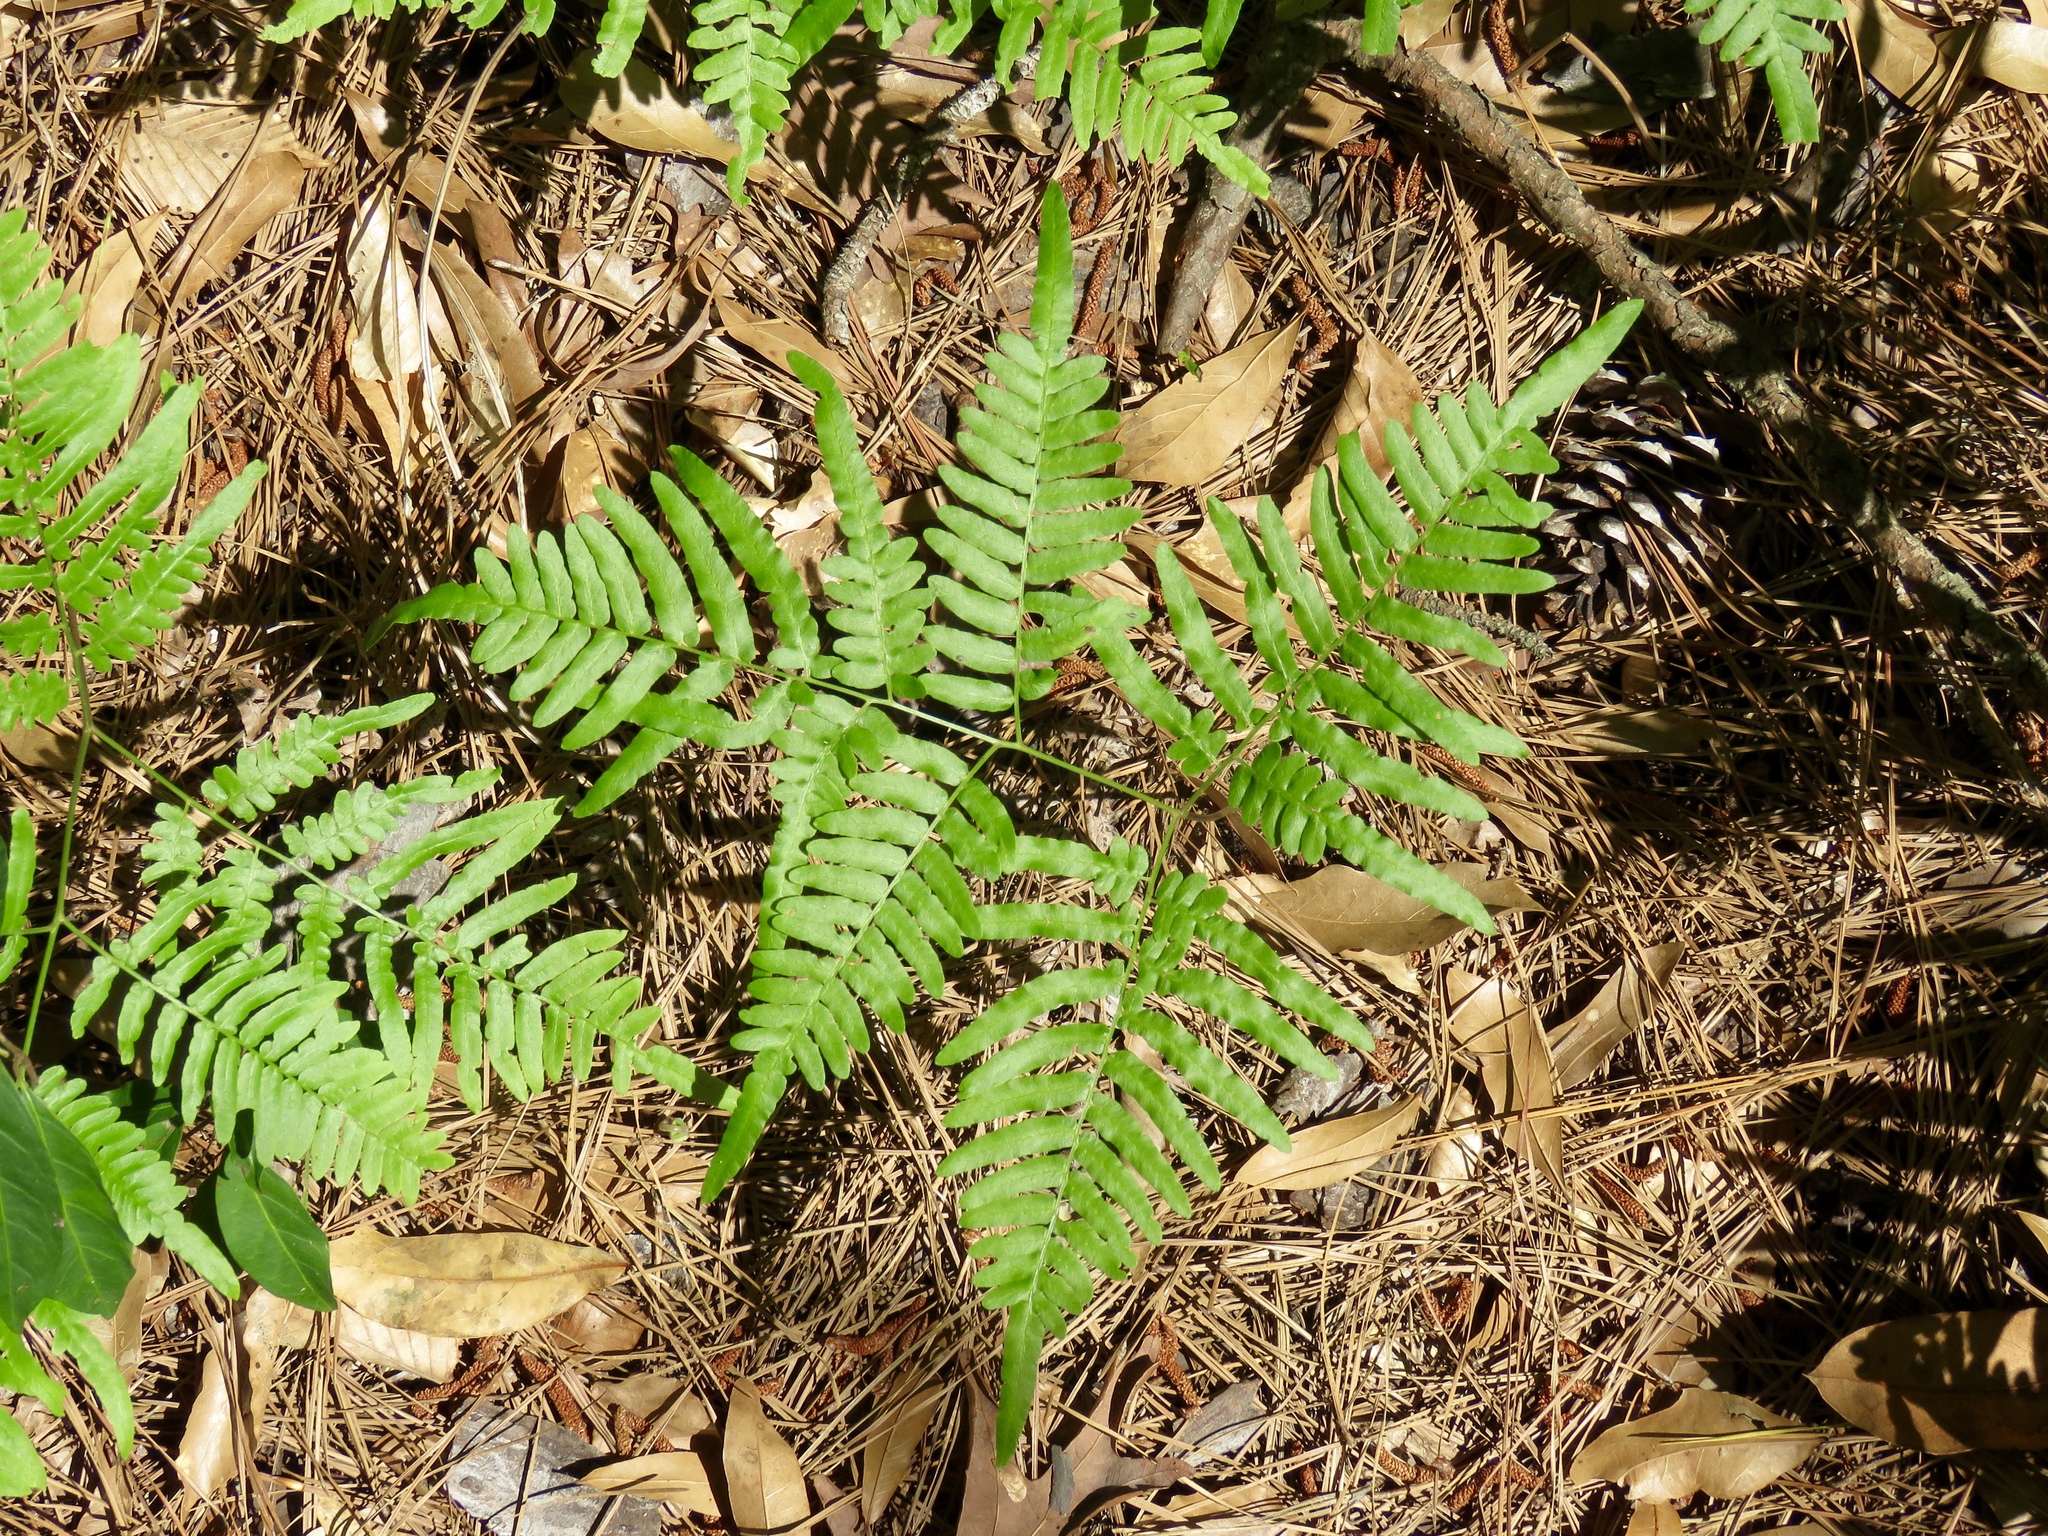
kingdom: Plantae
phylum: Tracheophyta
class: Polypodiopsida
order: Polypodiales
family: Dennstaedtiaceae
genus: Pteridium
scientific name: Pteridium aquilinum
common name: Bracken
